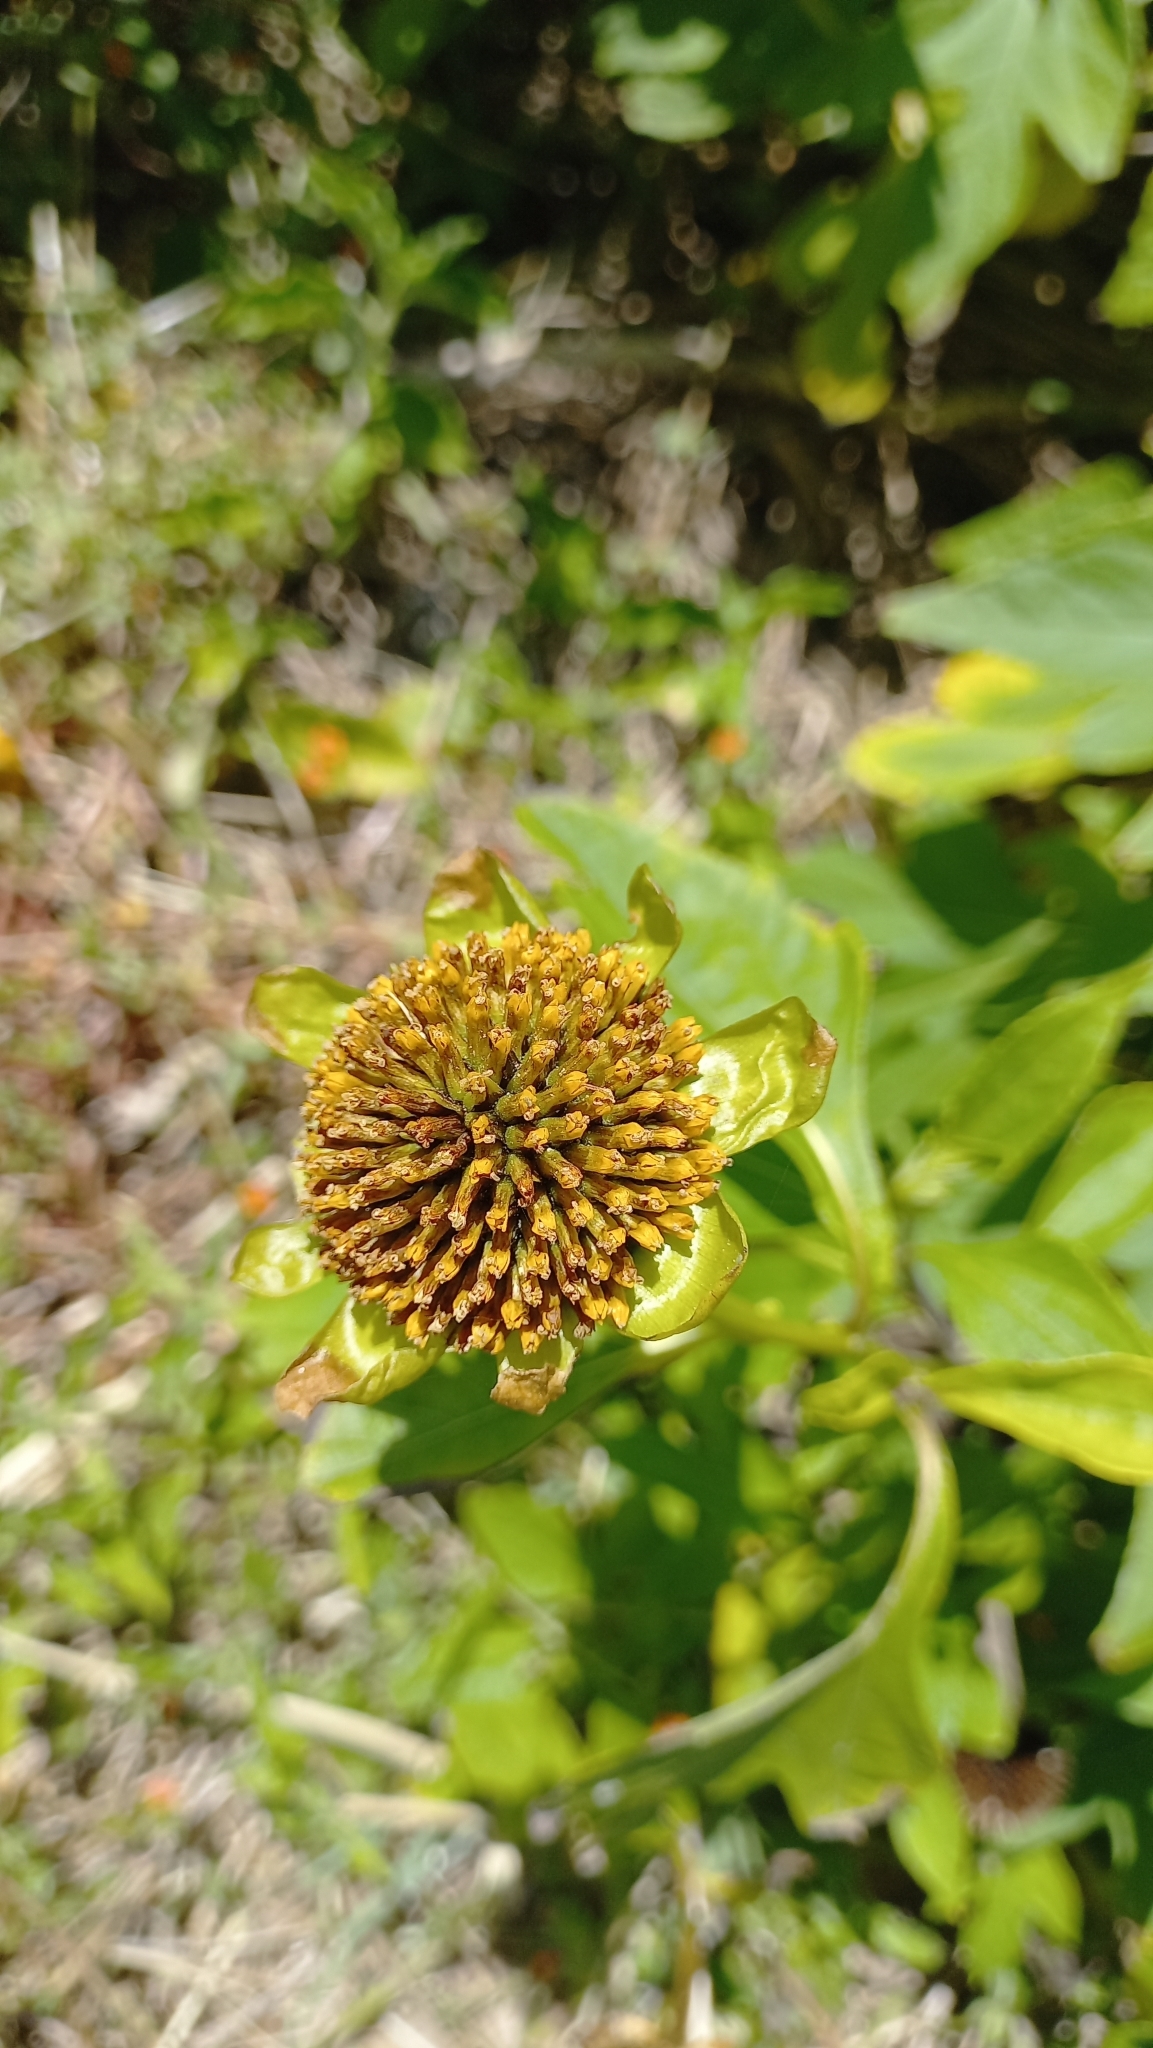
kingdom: Plantae
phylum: Tracheophyta
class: Magnoliopsida
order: Asterales
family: Asteraceae
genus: Tithonia
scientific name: Tithonia diversifolia
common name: Tree marigold
